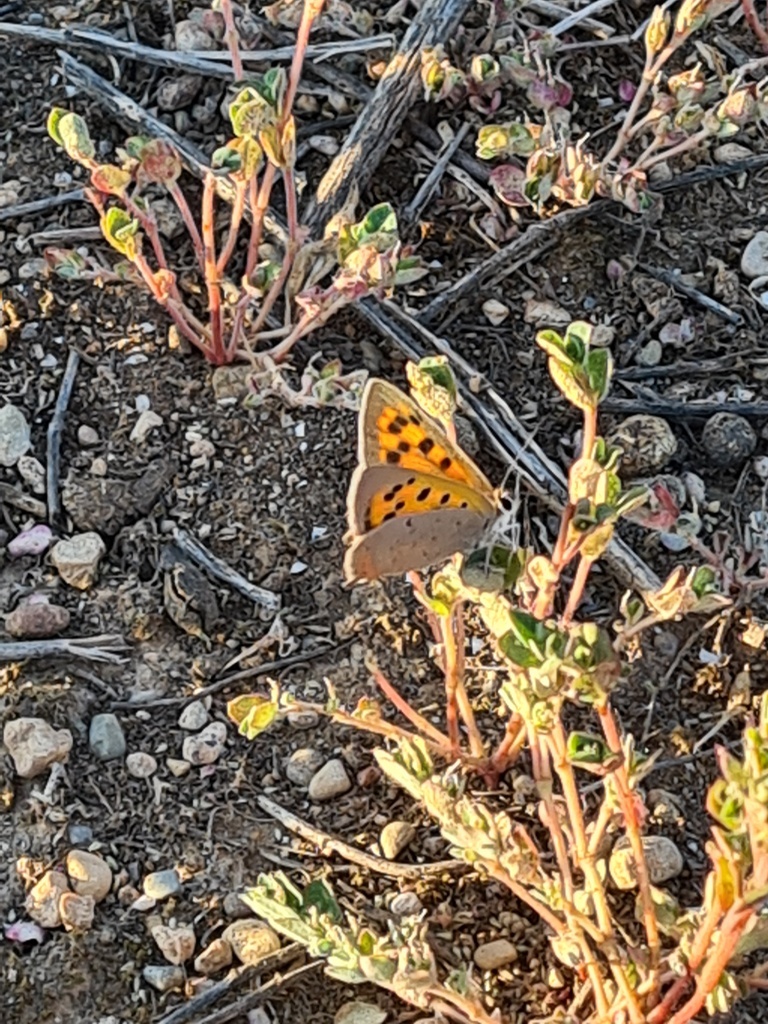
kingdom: Animalia
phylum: Arthropoda
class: Insecta
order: Lepidoptera
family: Lycaenidae
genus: Lycaena
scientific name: Lycaena phlaeas
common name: Small copper
